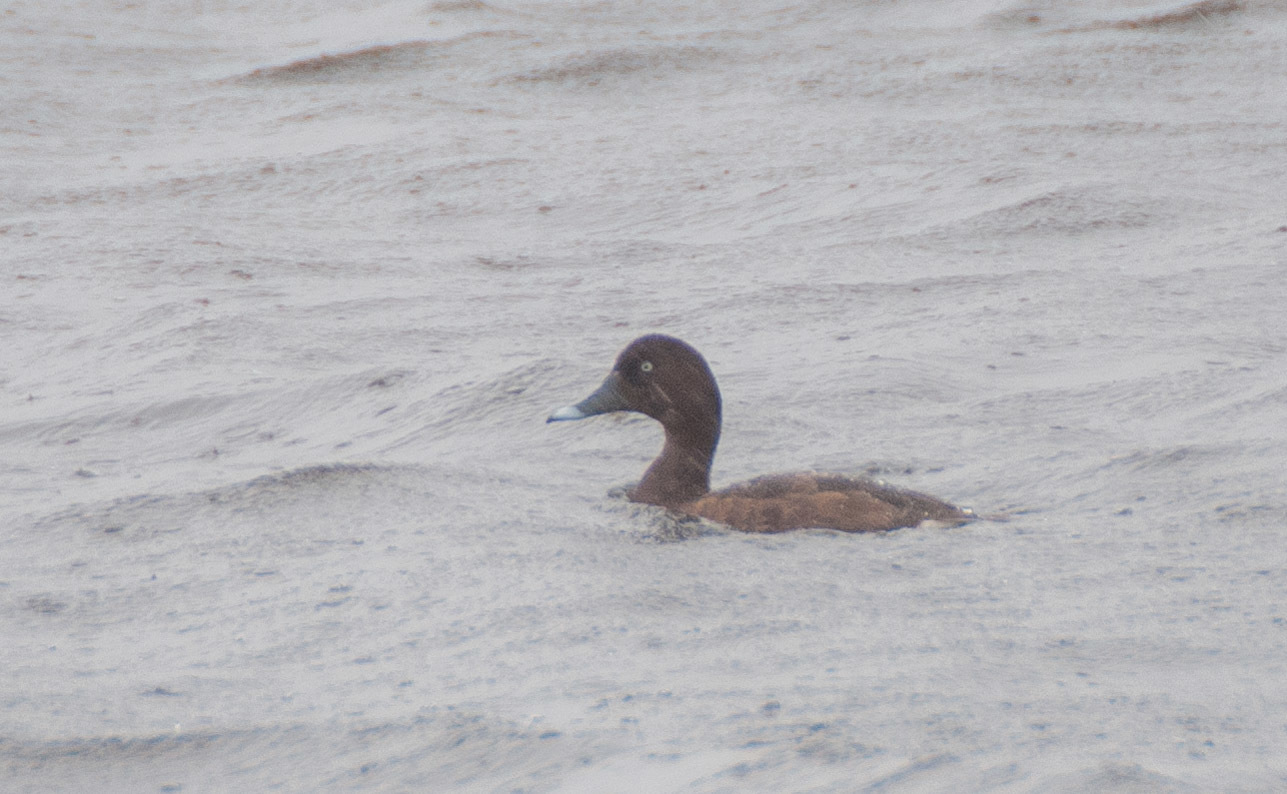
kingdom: Animalia
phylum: Chordata
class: Aves
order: Anseriformes
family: Anatidae
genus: Aythya
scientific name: Aythya australis
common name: Hardhead
